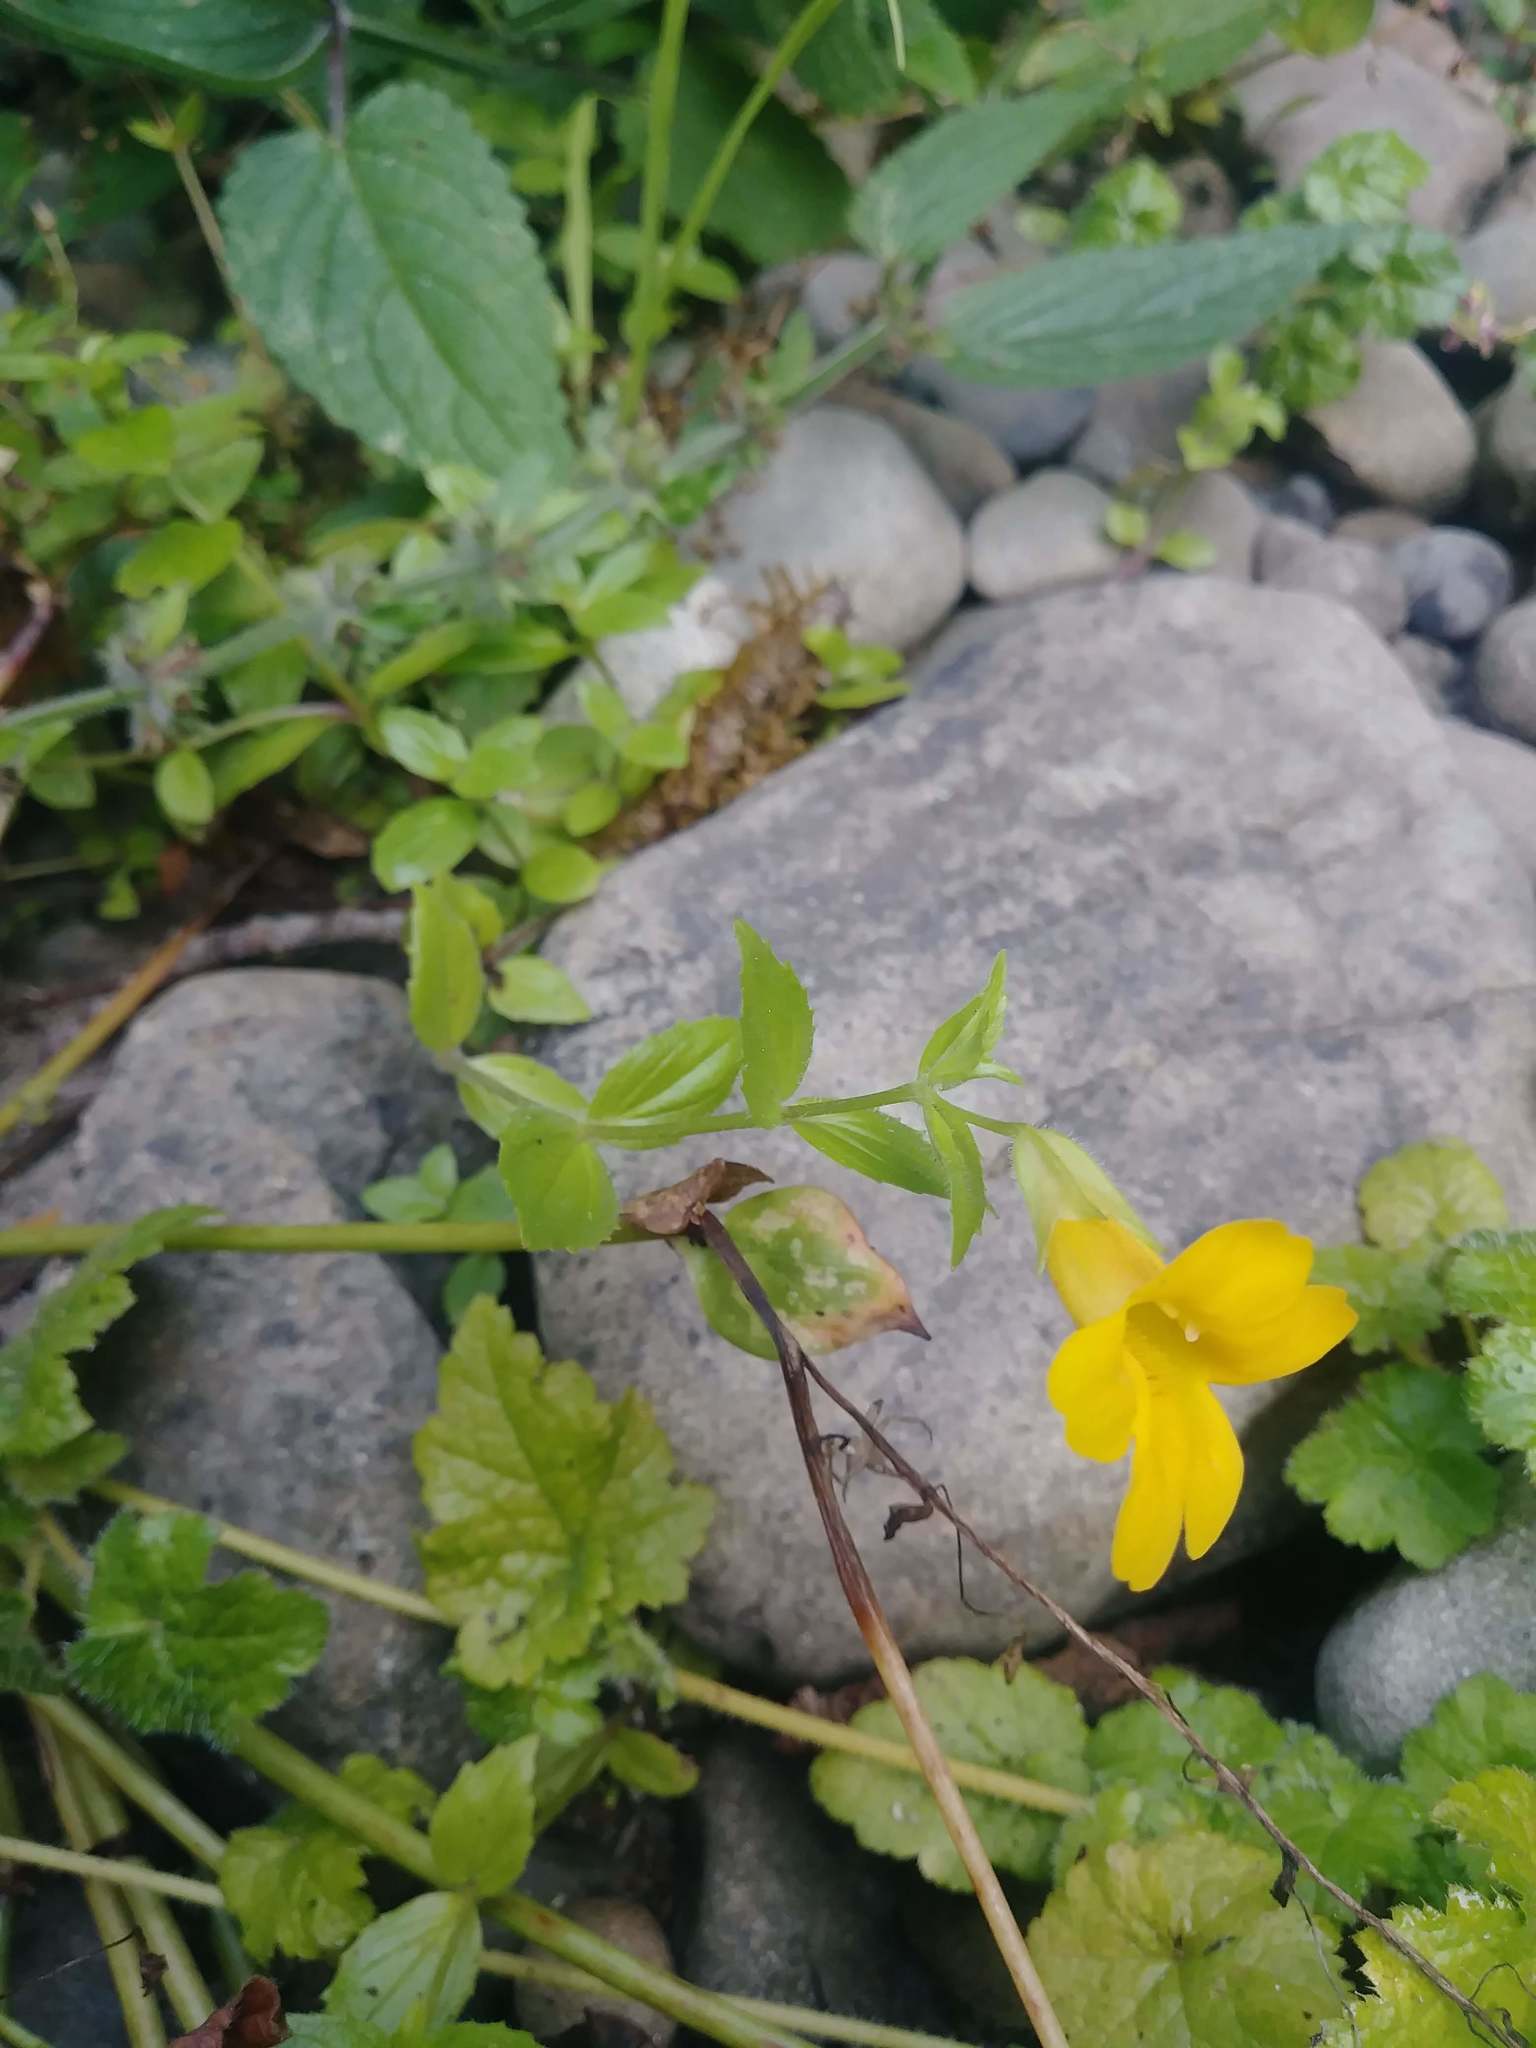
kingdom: Plantae
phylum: Tracheophyta
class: Magnoliopsida
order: Lamiales
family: Phrymaceae
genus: Erythranthe
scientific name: Erythranthe dentata
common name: Coastal monkeyflower
